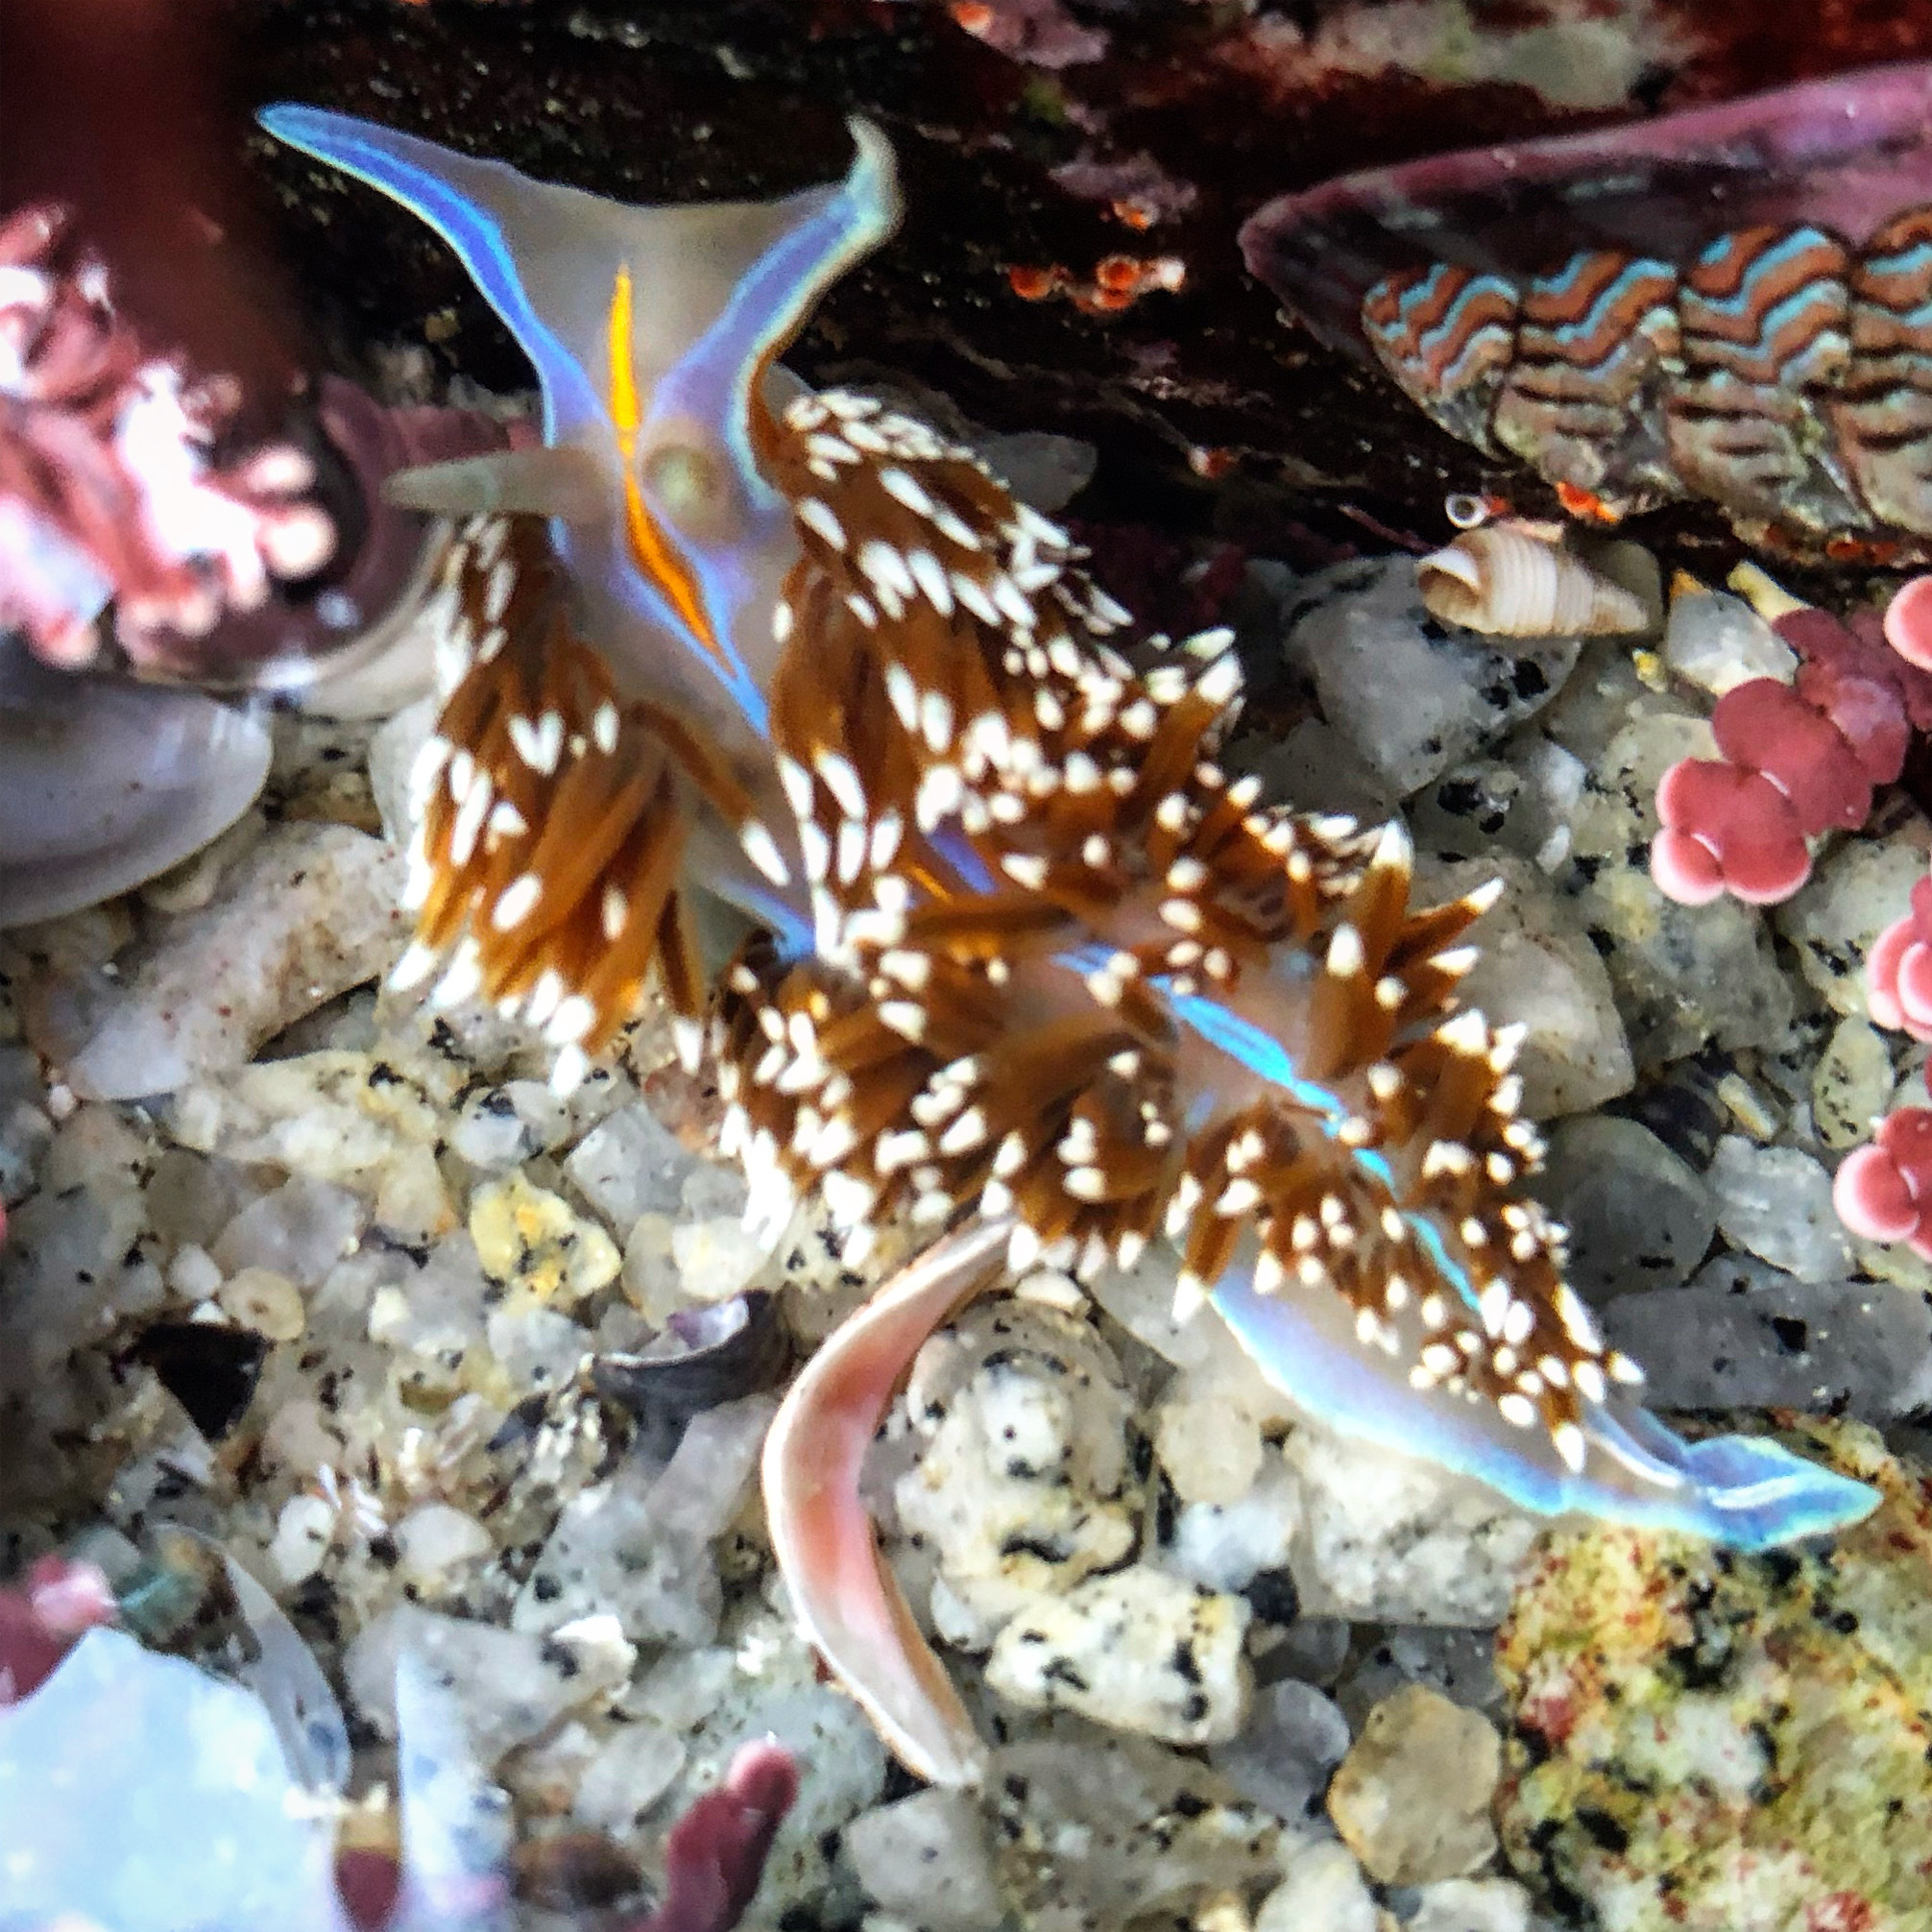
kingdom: Animalia
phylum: Mollusca
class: Gastropoda
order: Nudibranchia
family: Myrrhinidae
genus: Hermissenda
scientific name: Hermissenda opalescens
